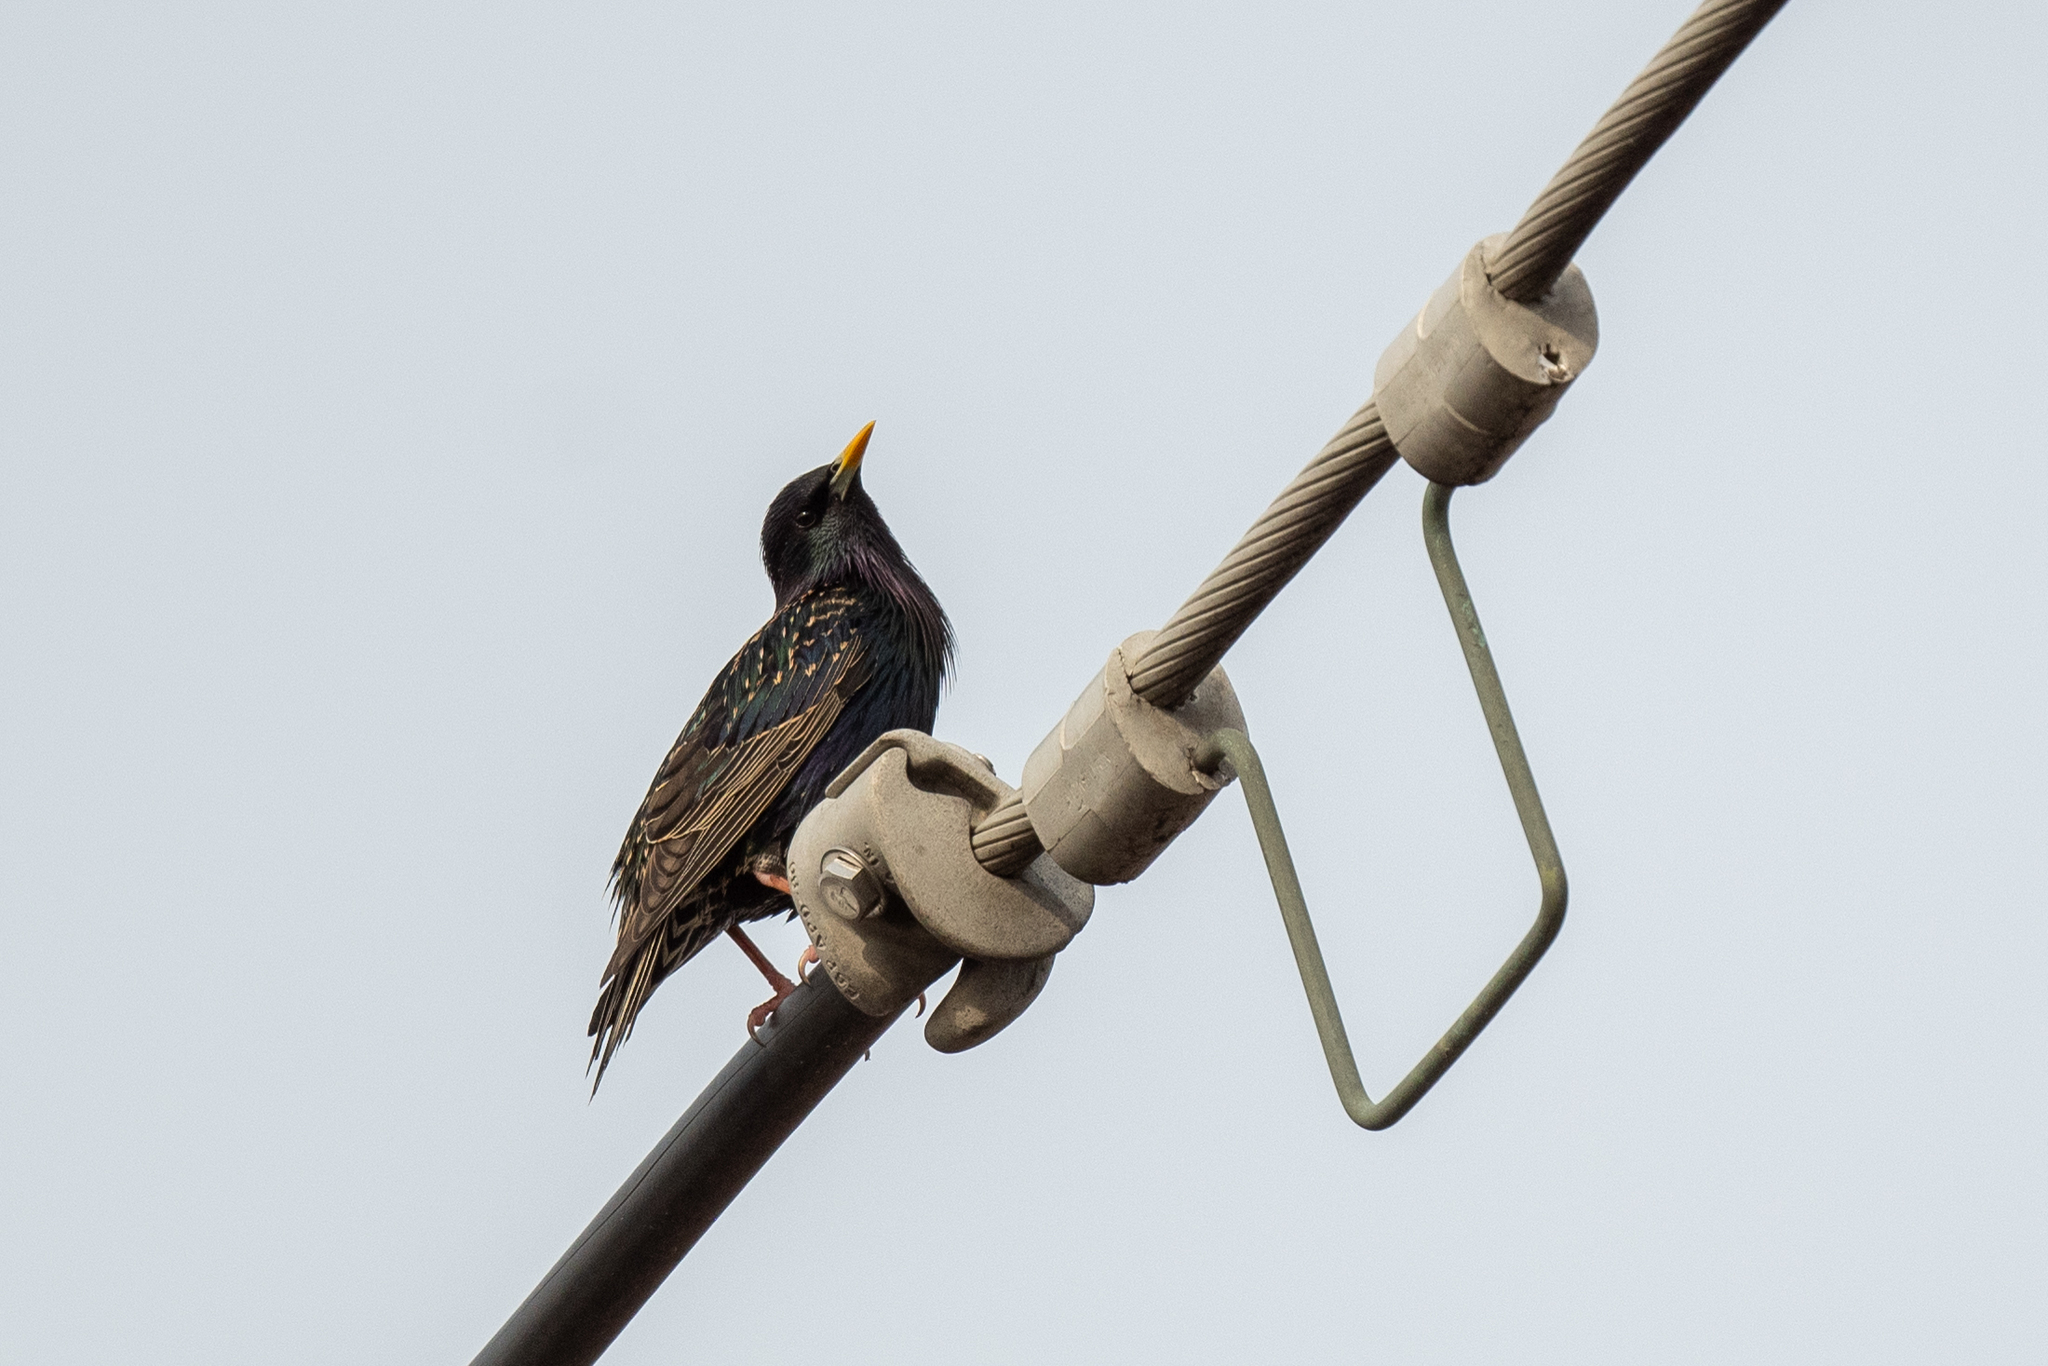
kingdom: Animalia
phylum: Chordata
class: Aves
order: Passeriformes
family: Sturnidae
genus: Sturnus
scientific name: Sturnus vulgaris
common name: Common starling
